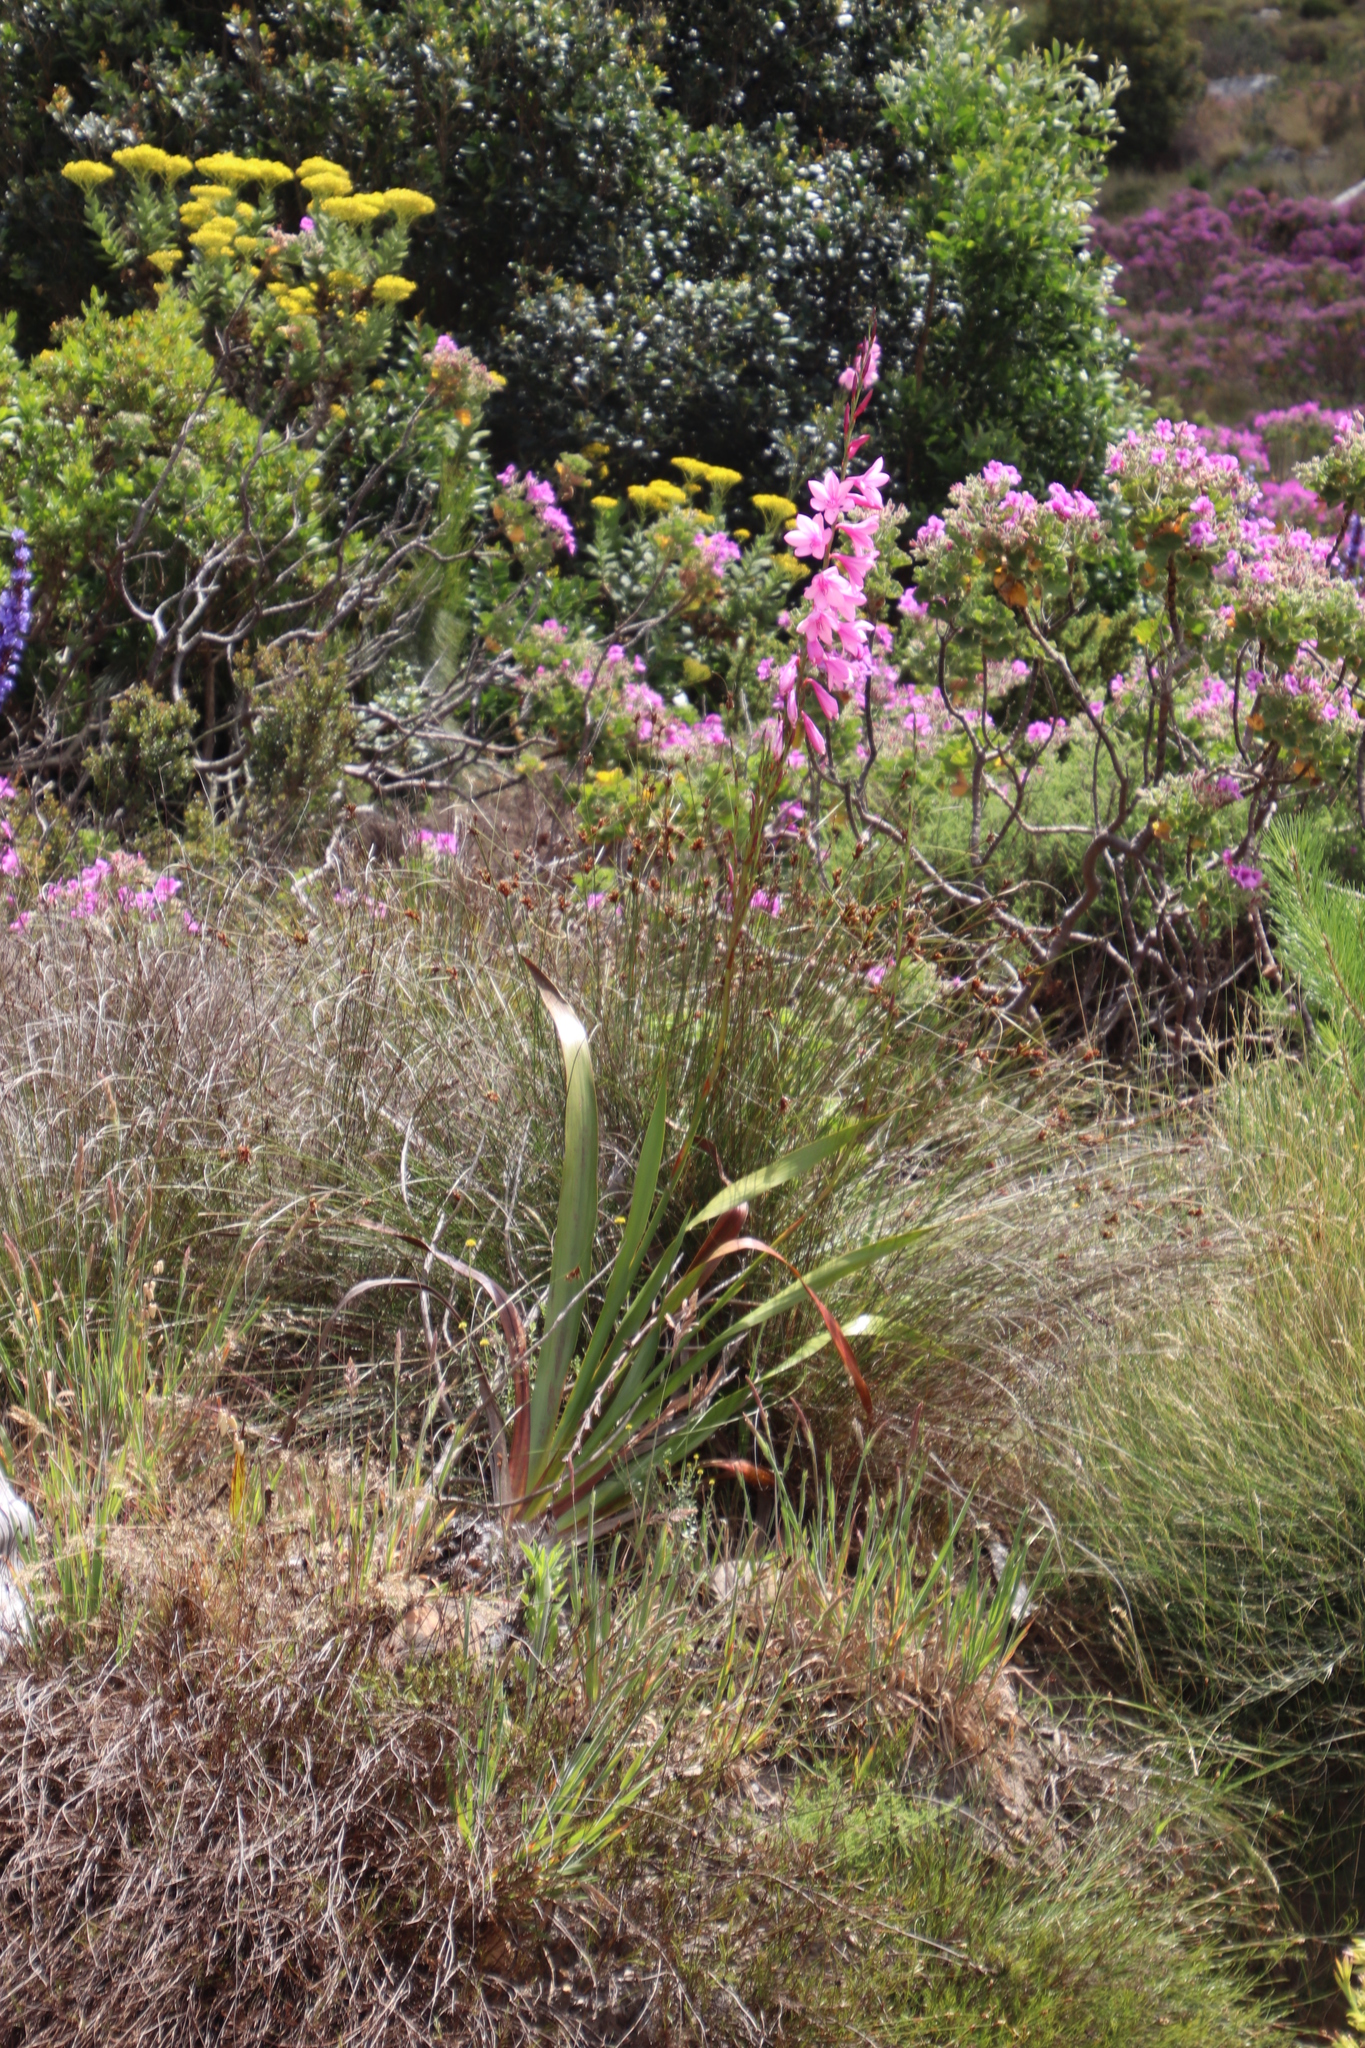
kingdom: Plantae
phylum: Tracheophyta
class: Liliopsida
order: Asparagales
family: Iridaceae
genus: Watsonia
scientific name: Watsonia borbonica
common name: Bugle-lily
